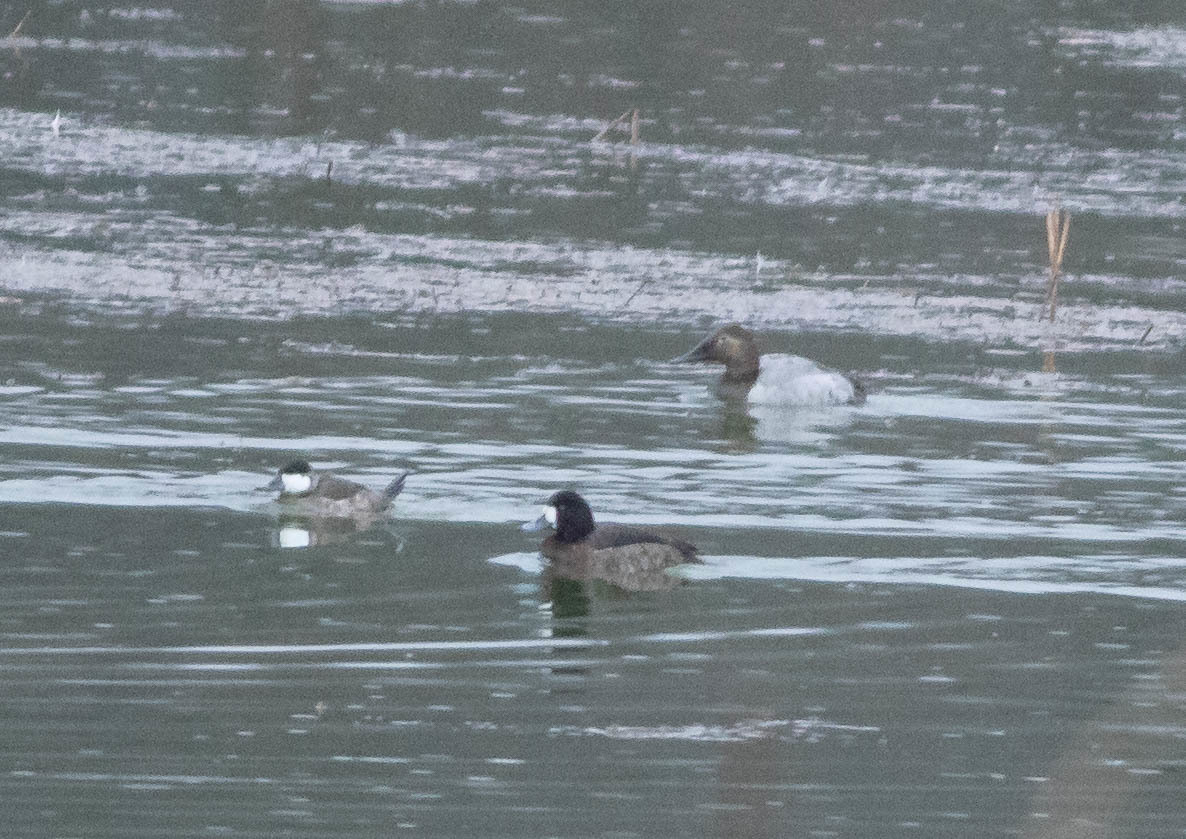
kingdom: Animalia
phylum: Chordata
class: Aves
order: Anseriformes
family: Anatidae
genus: Aythya
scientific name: Aythya valisineria
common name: Canvasback
